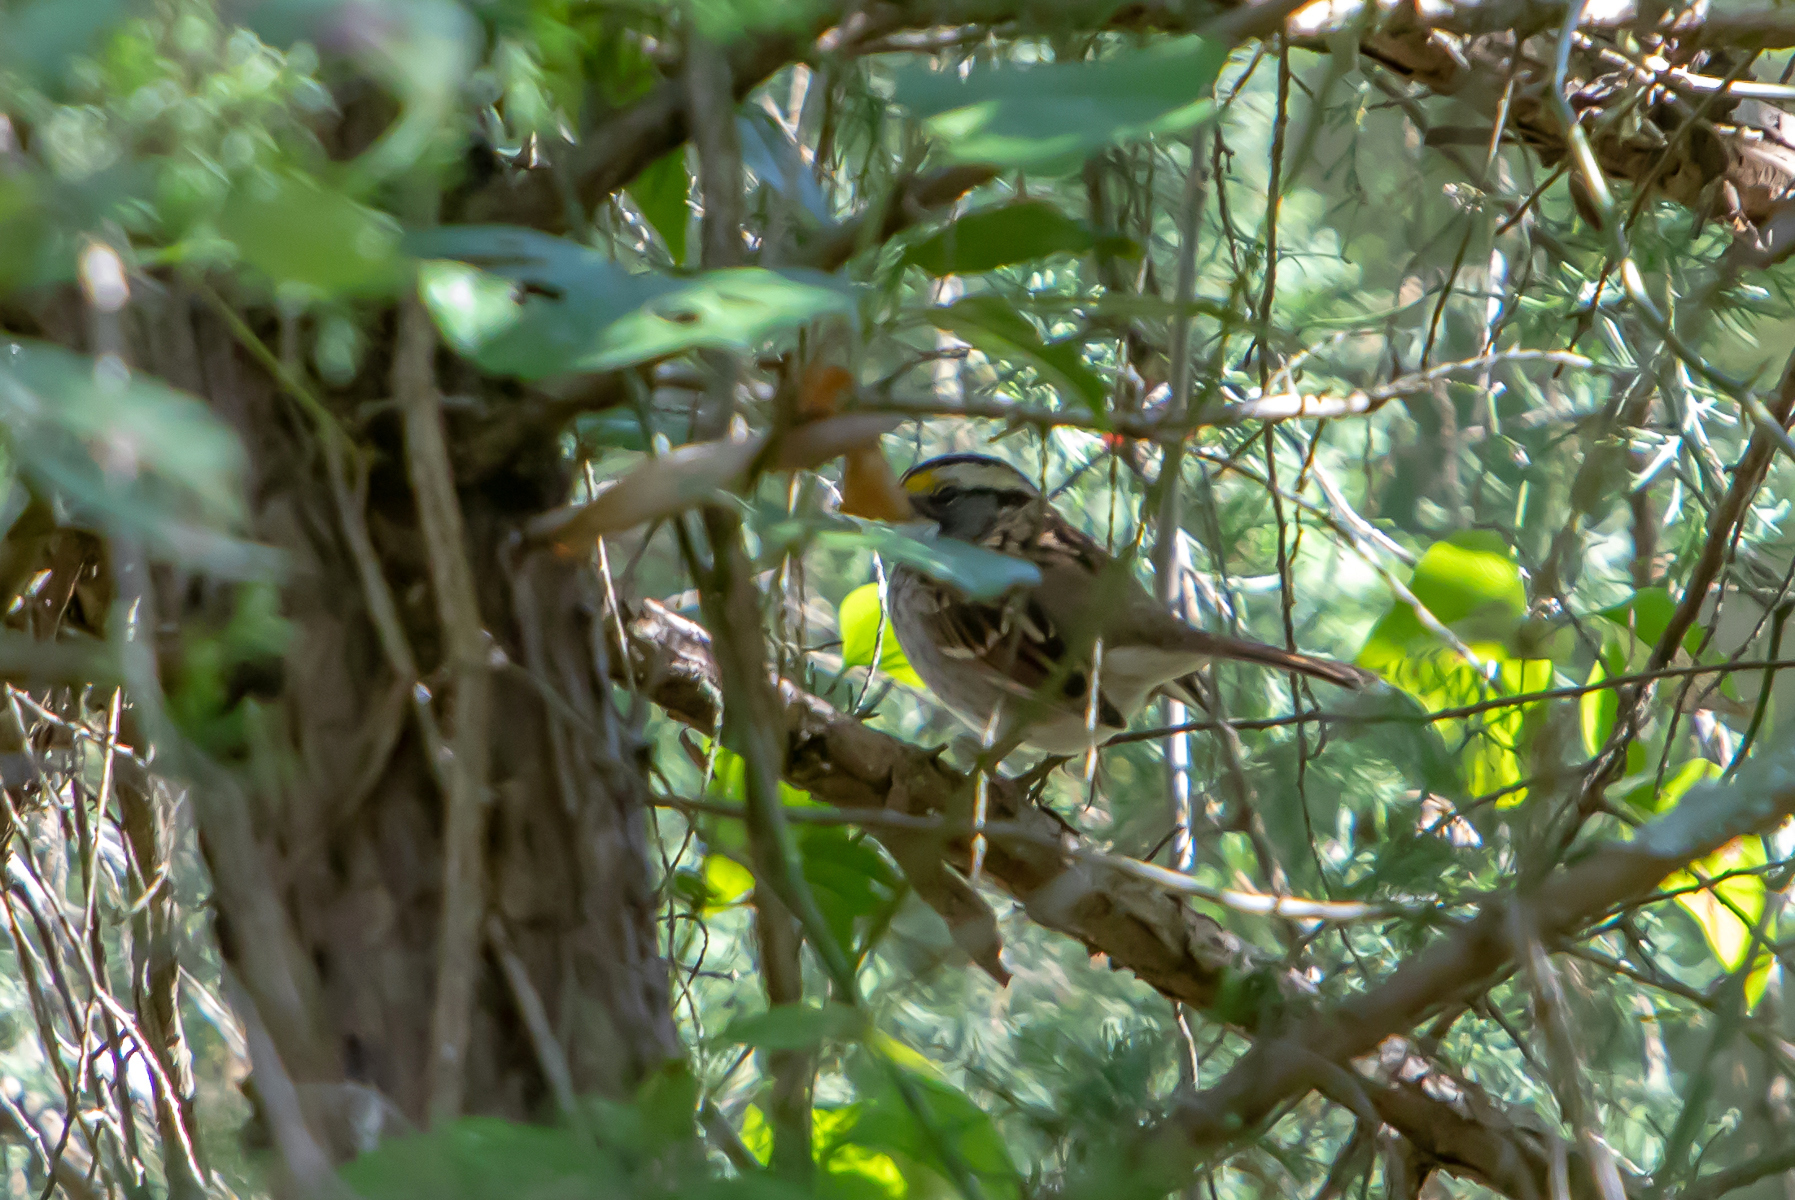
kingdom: Animalia
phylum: Chordata
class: Aves
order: Passeriformes
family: Passerellidae
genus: Zonotrichia
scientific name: Zonotrichia albicollis
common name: White-throated sparrow
